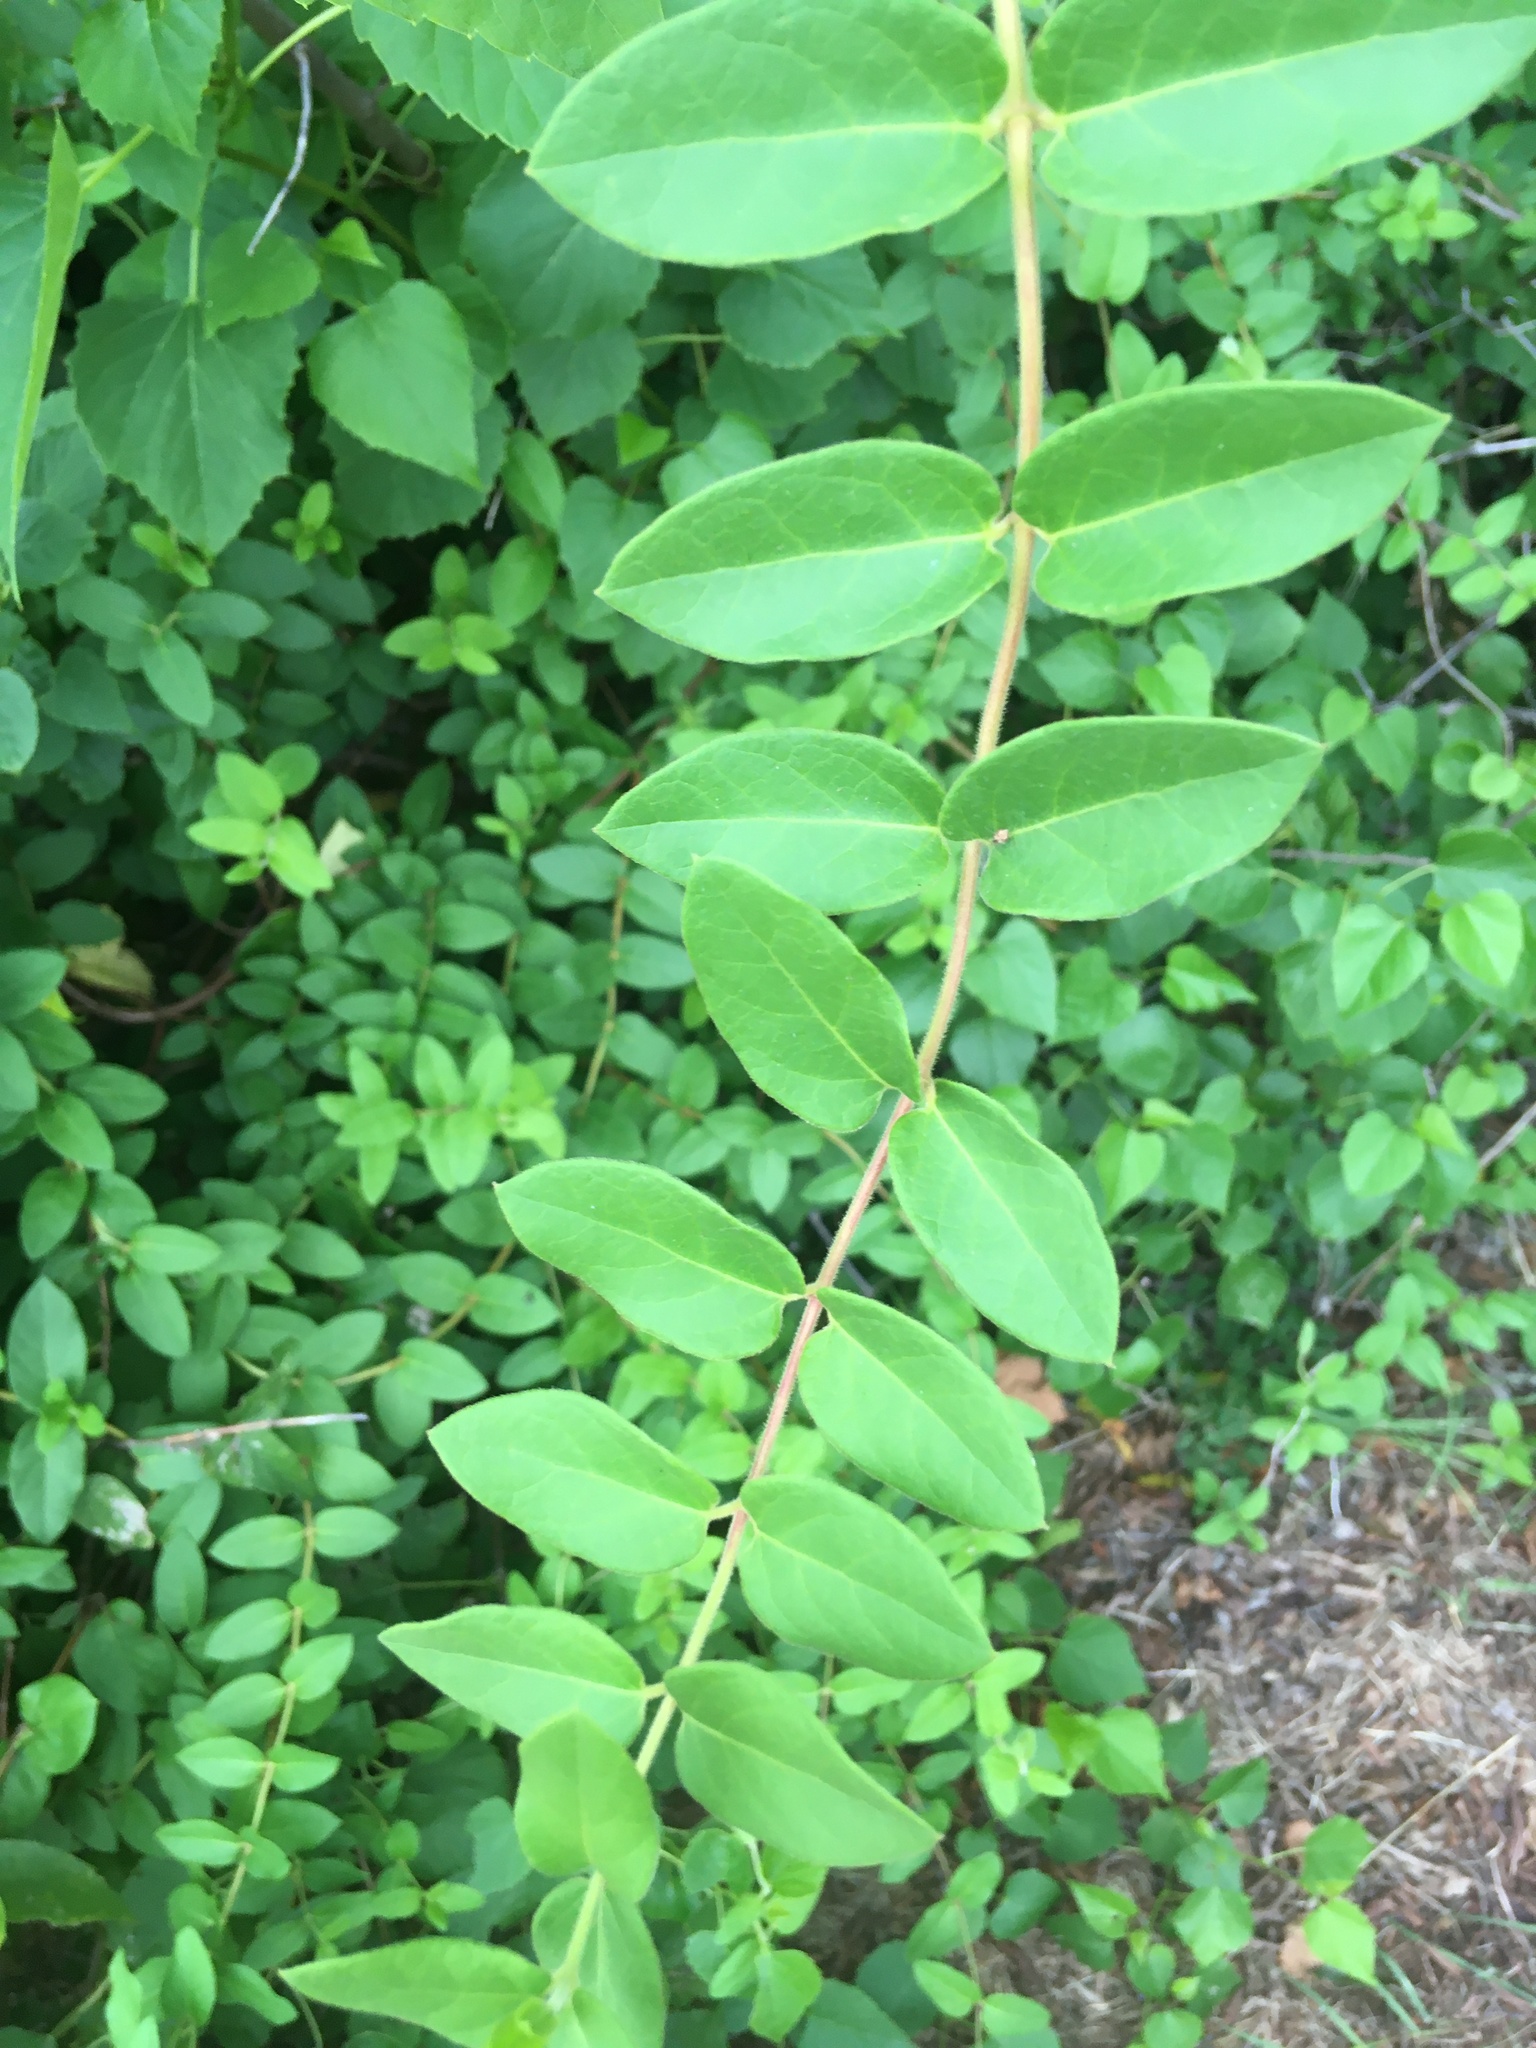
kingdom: Plantae
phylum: Tracheophyta
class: Magnoliopsida
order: Dipsacales
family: Caprifoliaceae
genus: Lonicera
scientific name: Lonicera japonica
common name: Japanese honeysuckle
